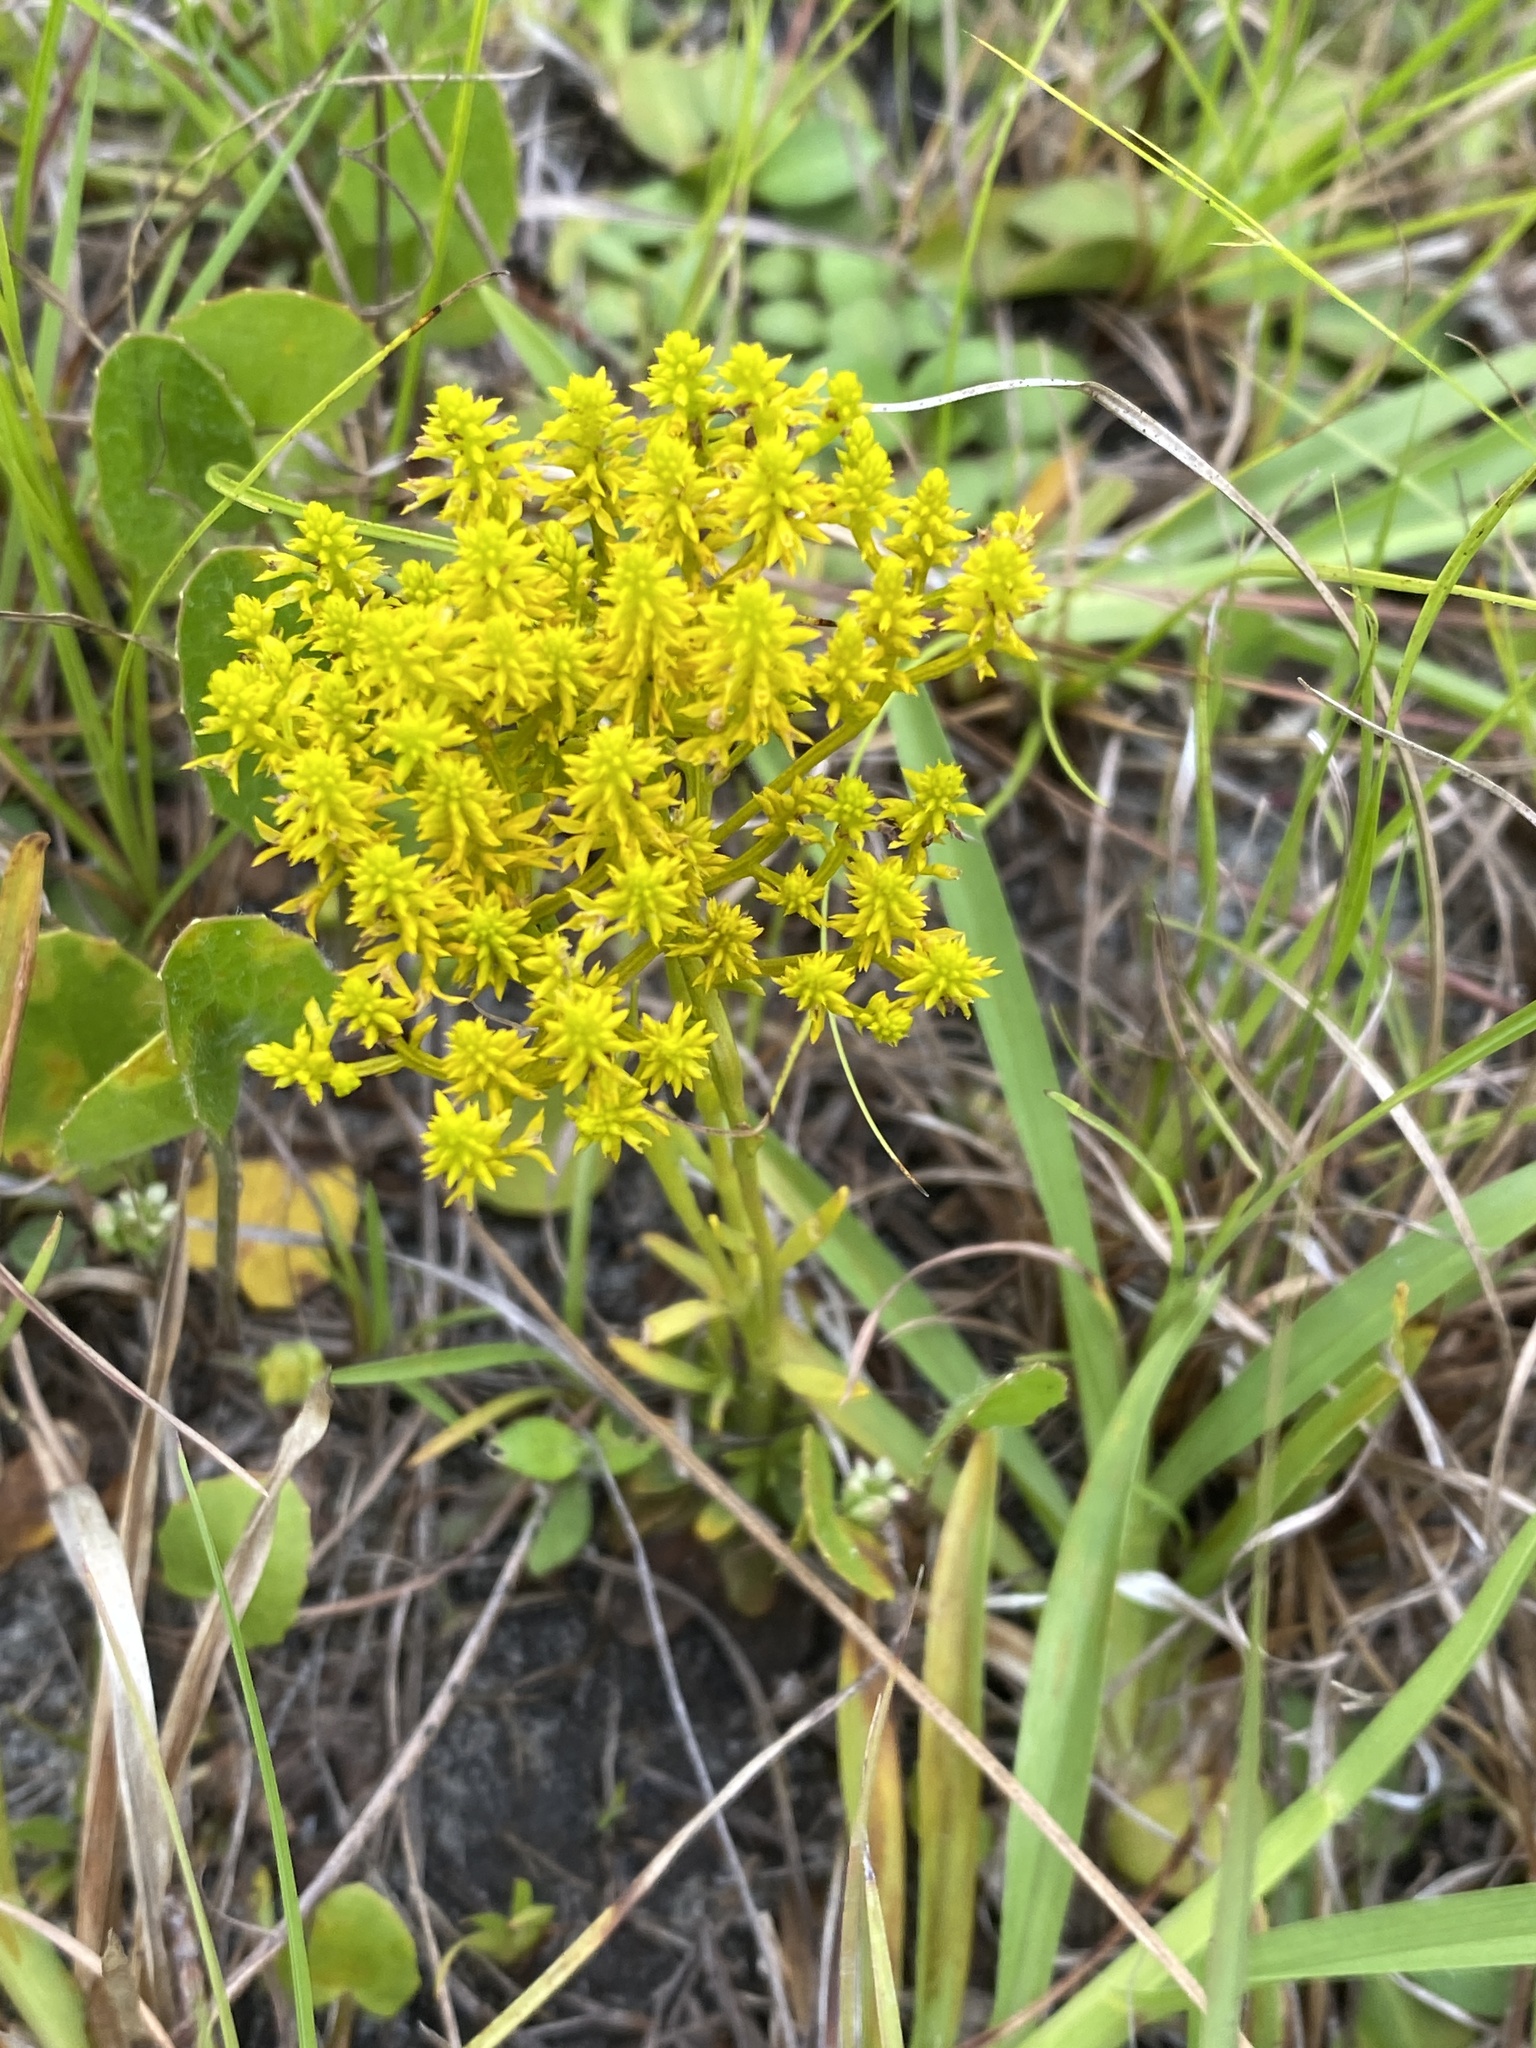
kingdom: Plantae
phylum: Tracheophyta
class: Magnoliopsida
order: Fabales
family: Polygalaceae
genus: Polygala
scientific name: Polygala ramosa
